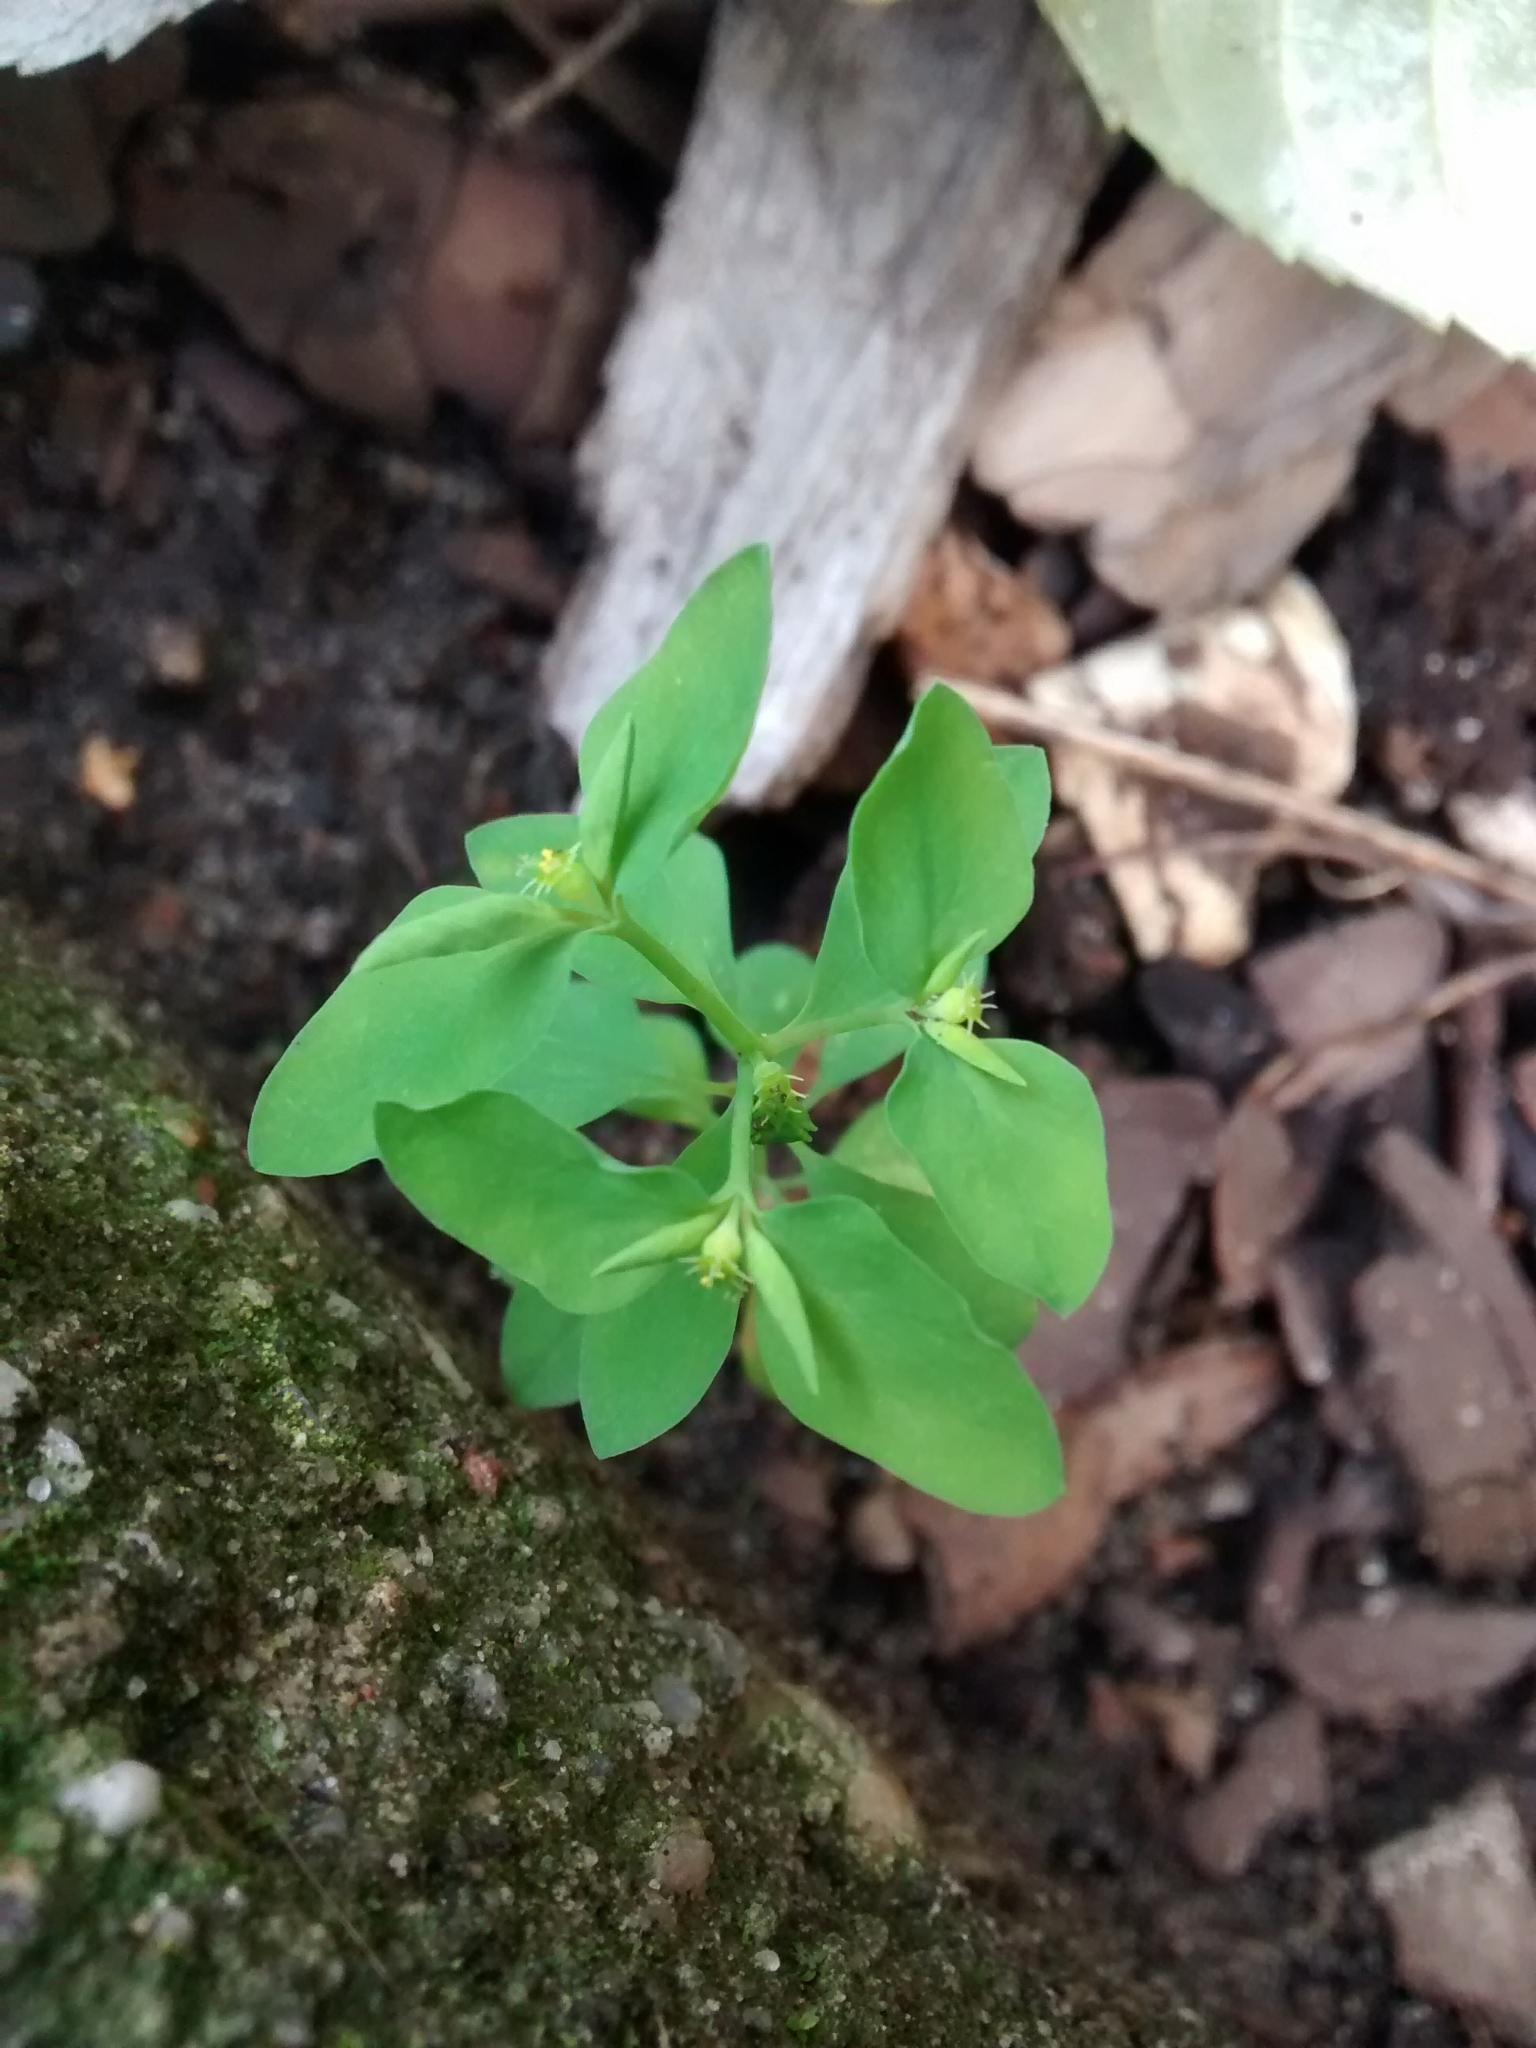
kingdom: Plantae
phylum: Tracheophyta
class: Magnoliopsida
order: Malpighiales
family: Euphorbiaceae
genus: Euphorbia
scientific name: Euphorbia peplus
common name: Petty spurge
